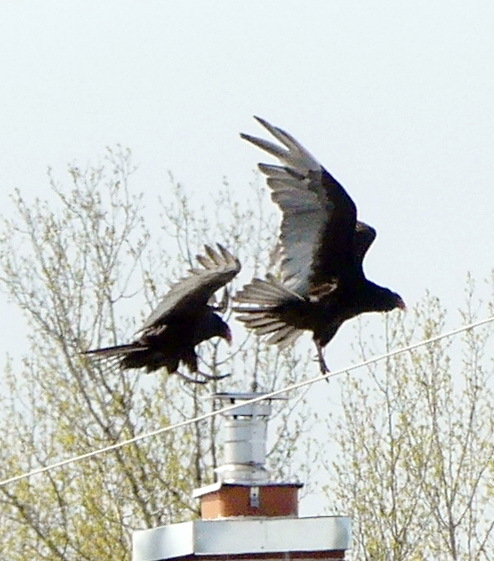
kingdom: Animalia
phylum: Chordata
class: Aves
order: Accipitriformes
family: Cathartidae
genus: Cathartes
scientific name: Cathartes aura
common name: Turkey vulture
